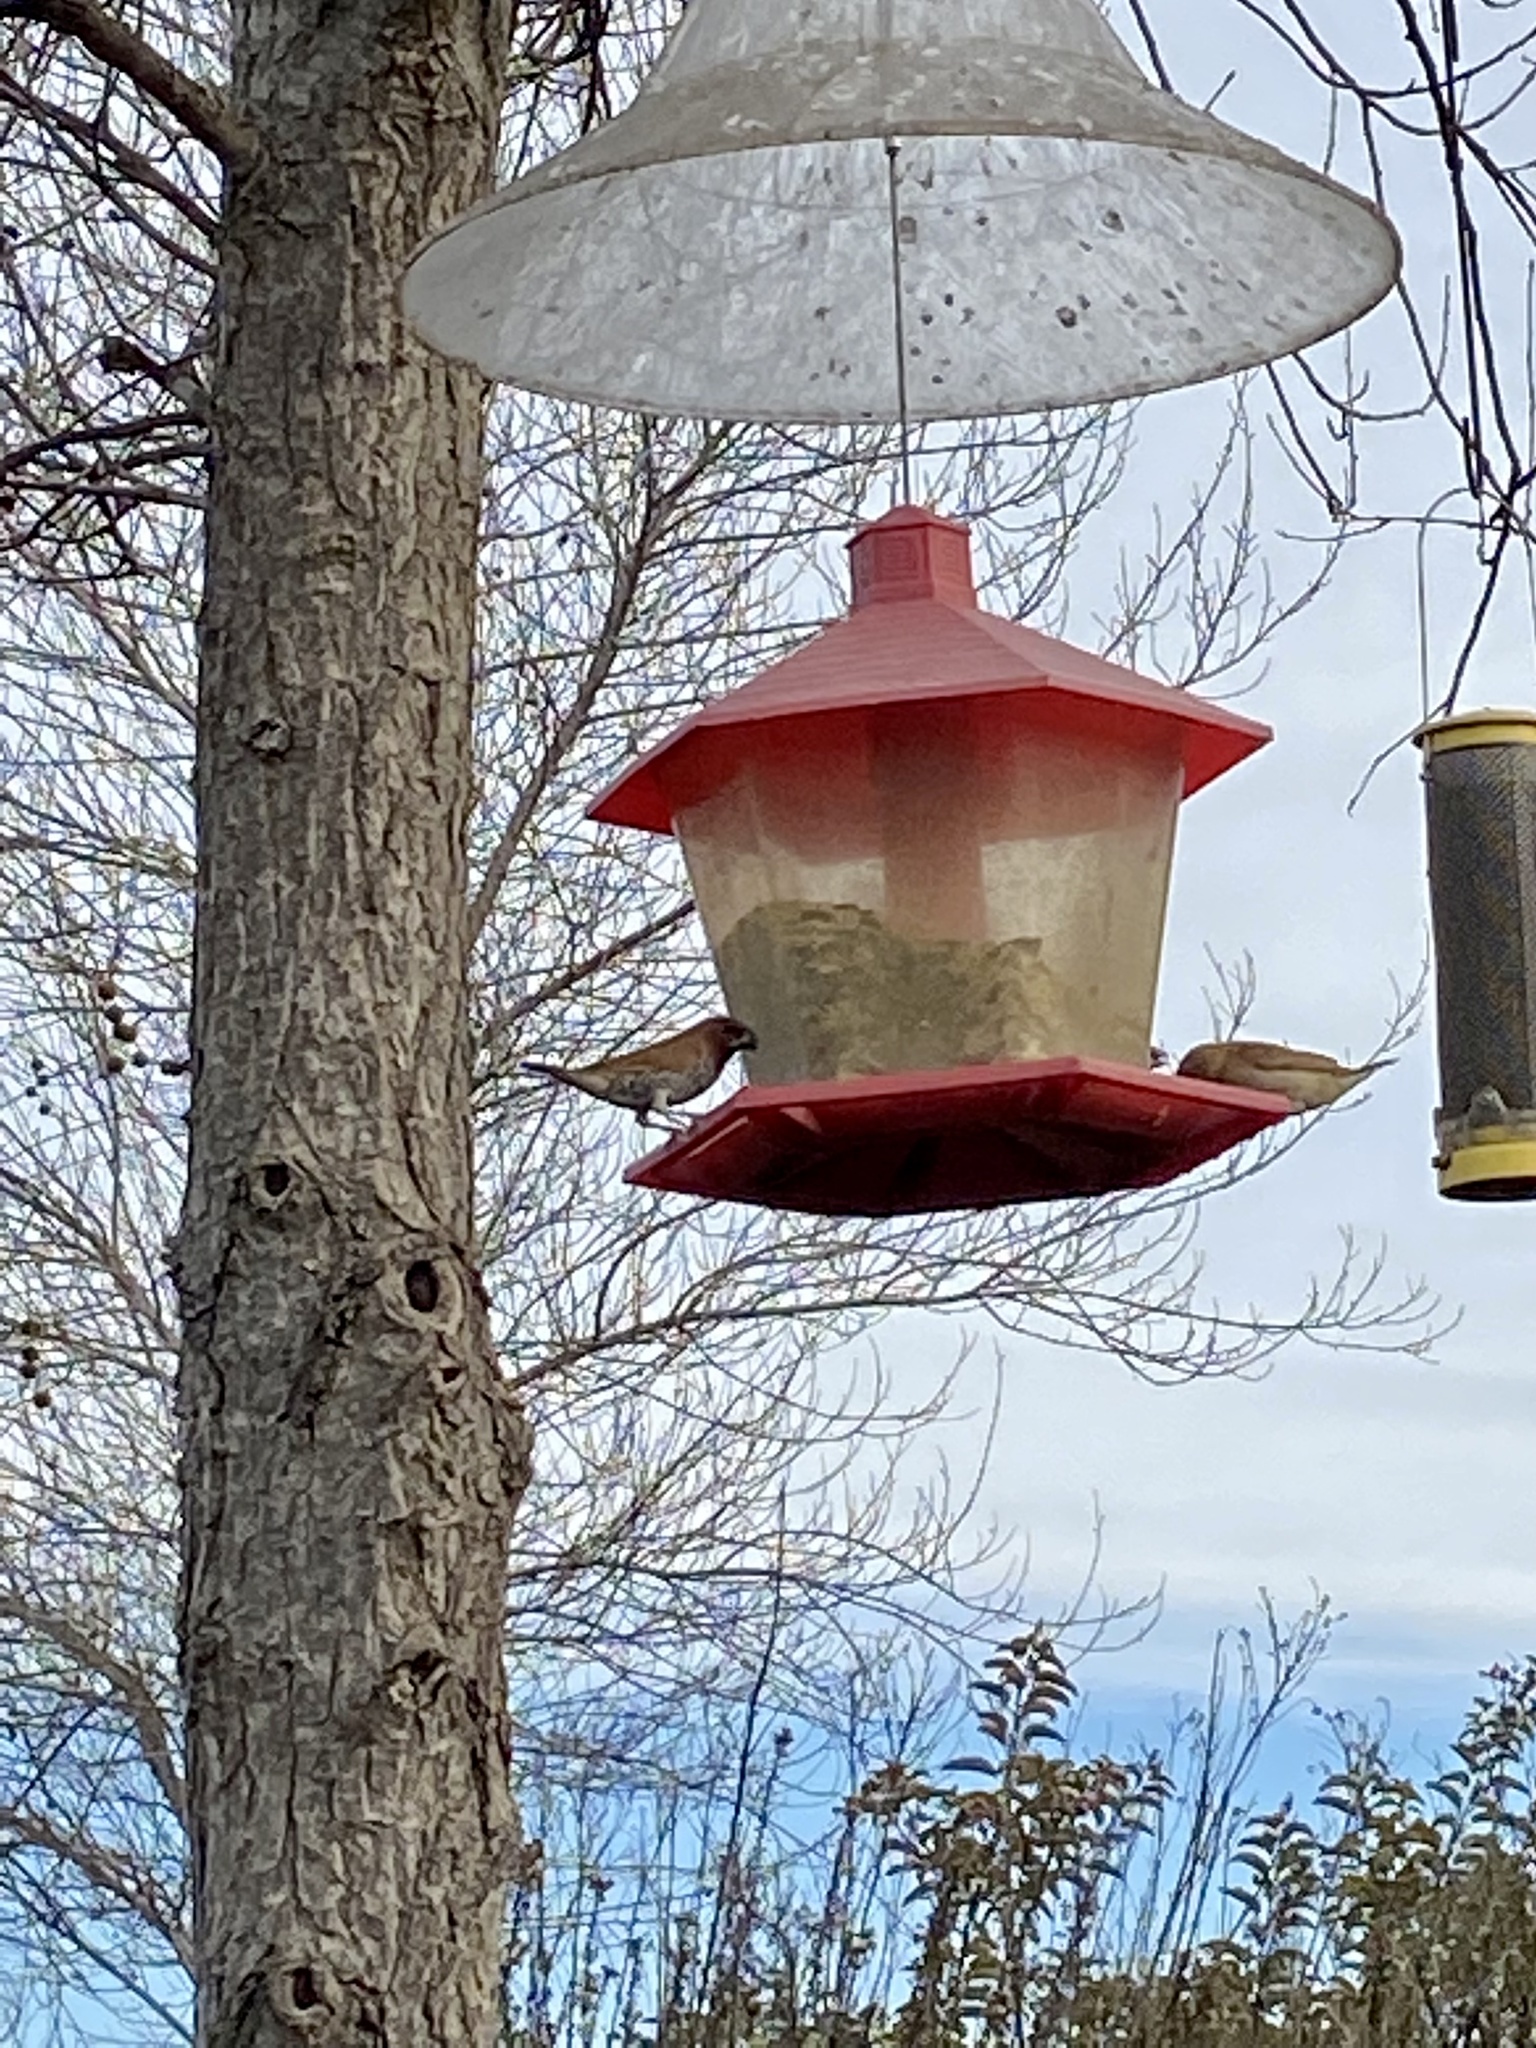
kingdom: Animalia
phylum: Chordata
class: Aves
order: Passeriformes
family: Estrildidae
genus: Lonchura
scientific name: Lonchura punctulata
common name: Scaly-breasted munia
